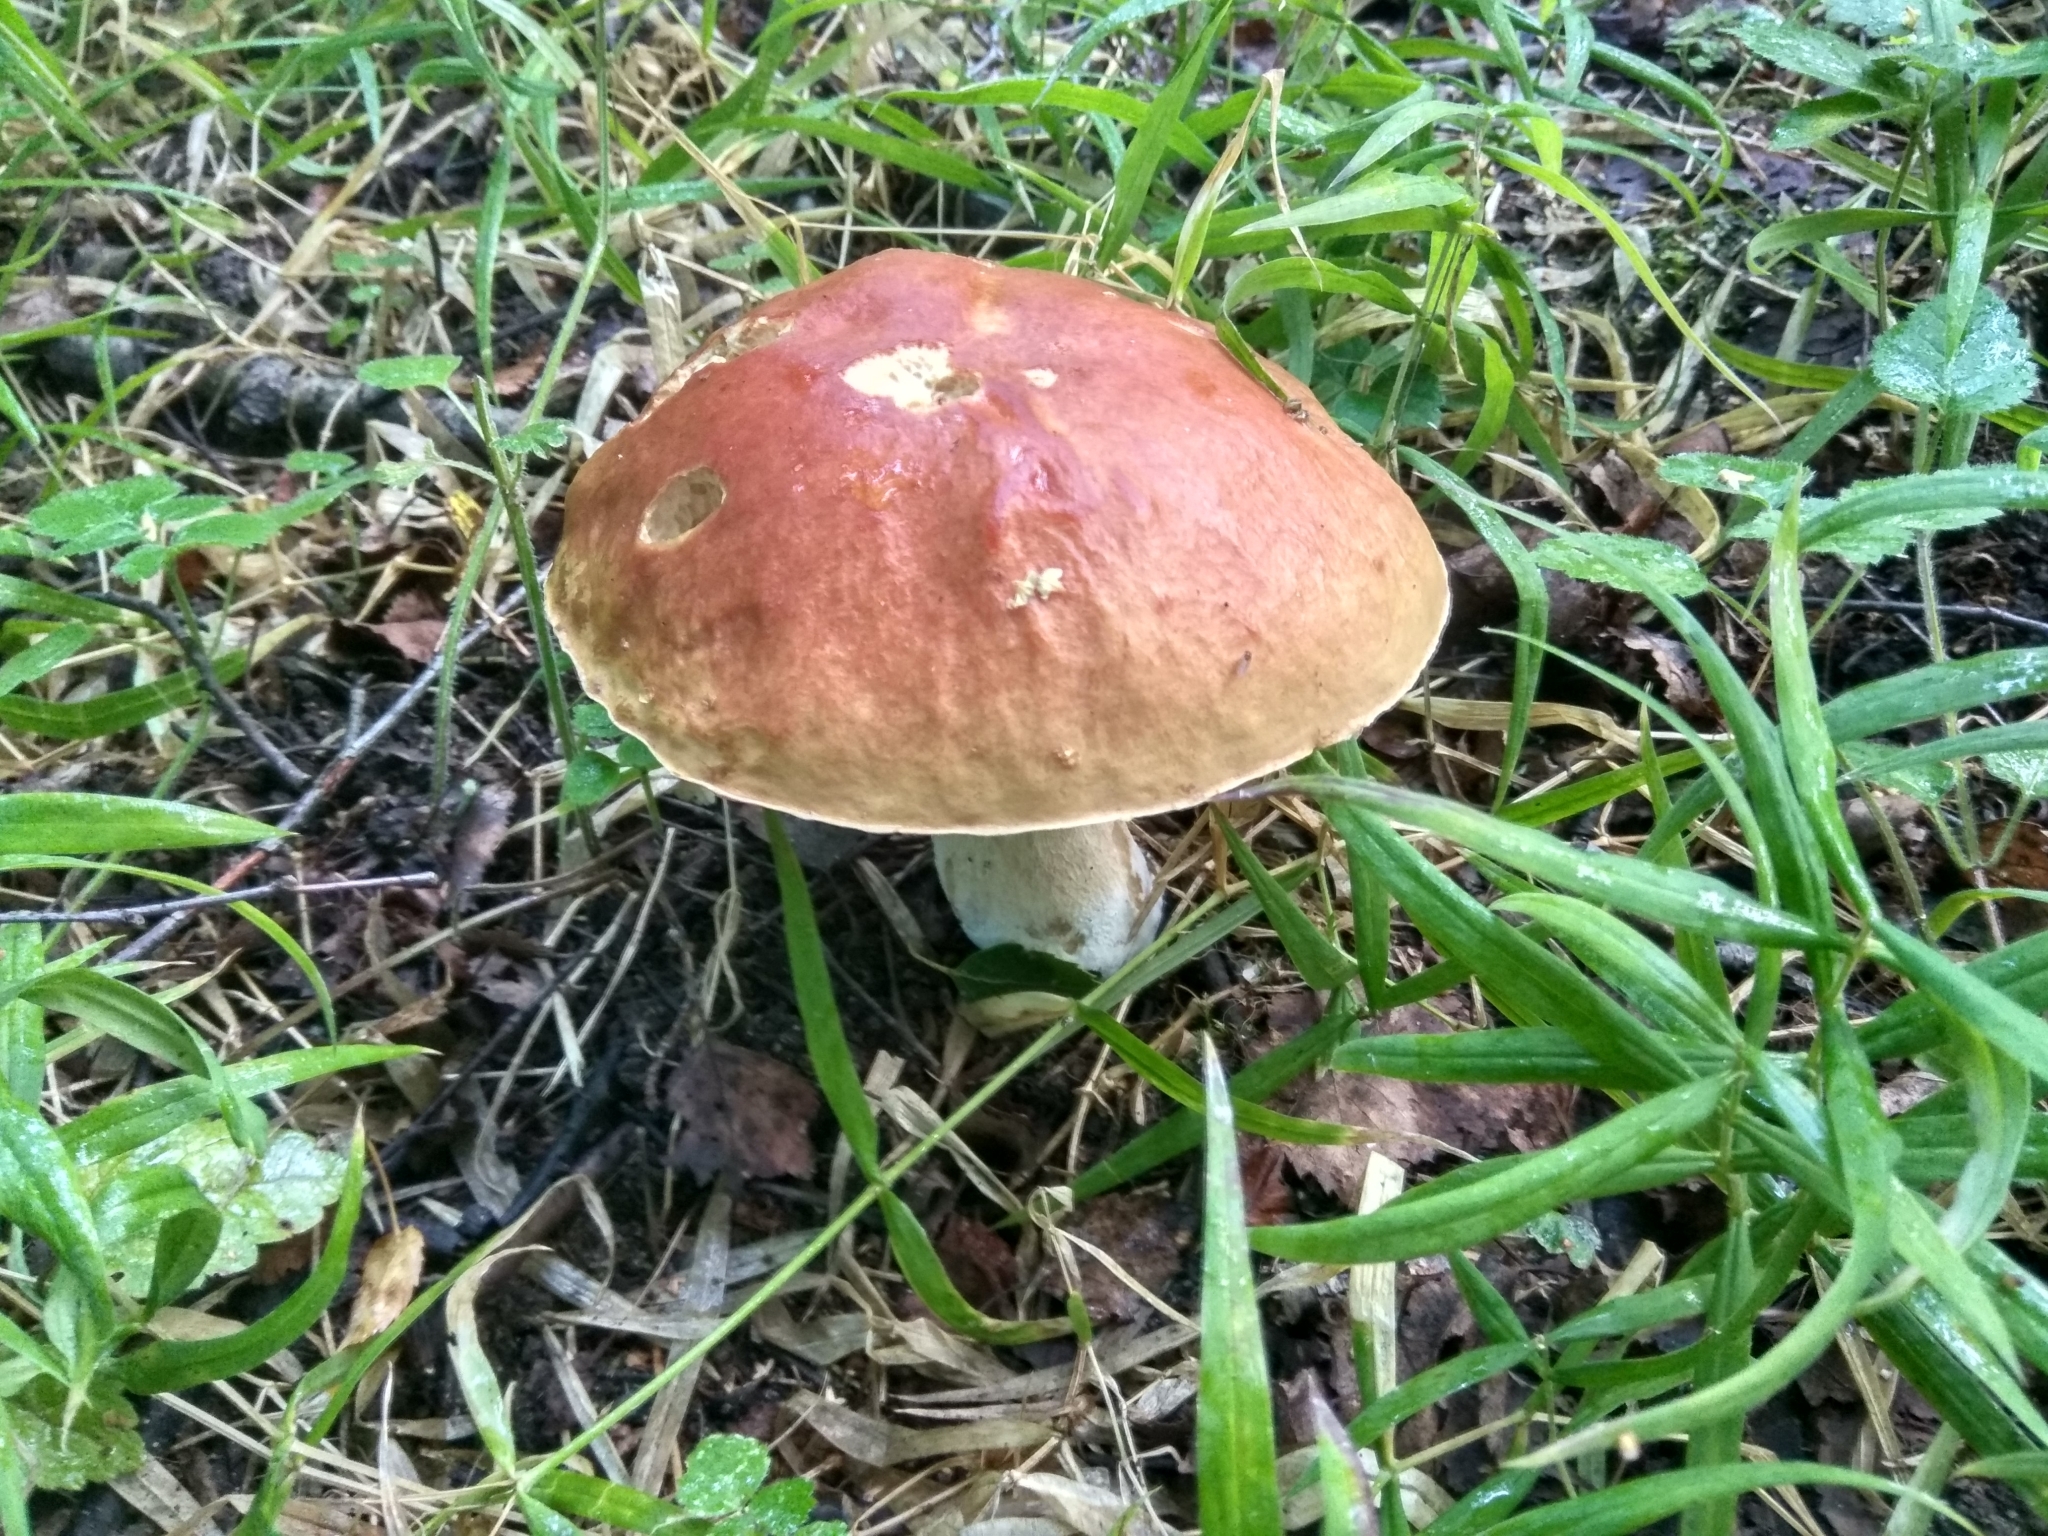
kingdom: Fungi
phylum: Basidiomycota
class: Agaricomycetes
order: Boletales
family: Boletaceae
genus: Boletus
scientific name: Boletus edulis
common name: Cep
